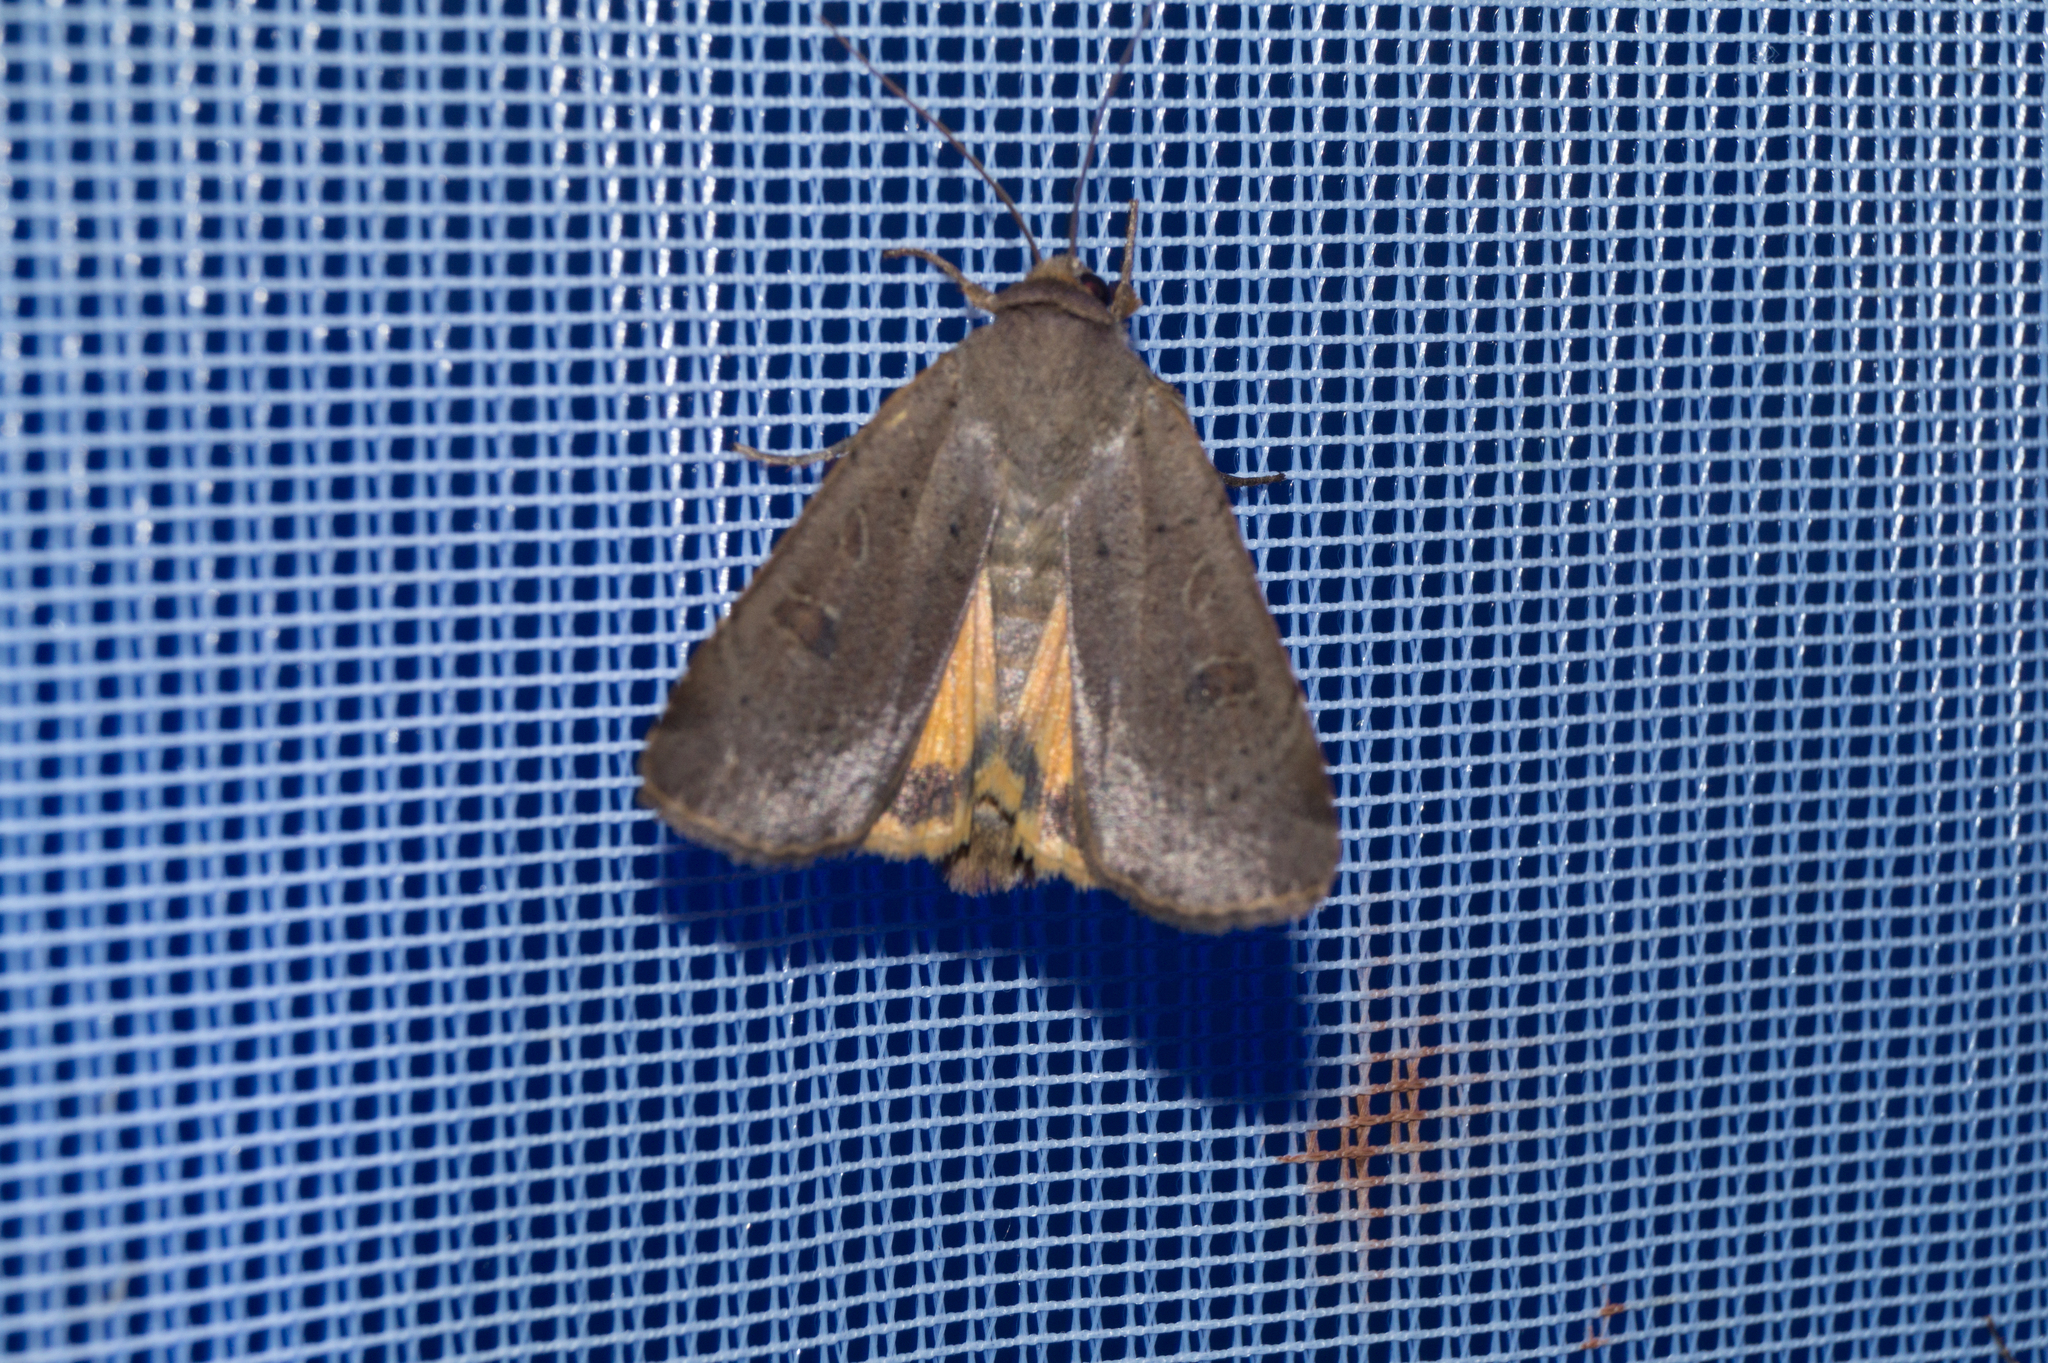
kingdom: Animalia
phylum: Arthropoda
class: Insecta
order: Lepidoptera
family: Noctuidae
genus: Noctua
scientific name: Noctua comes
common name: Lesser yellow underwing
